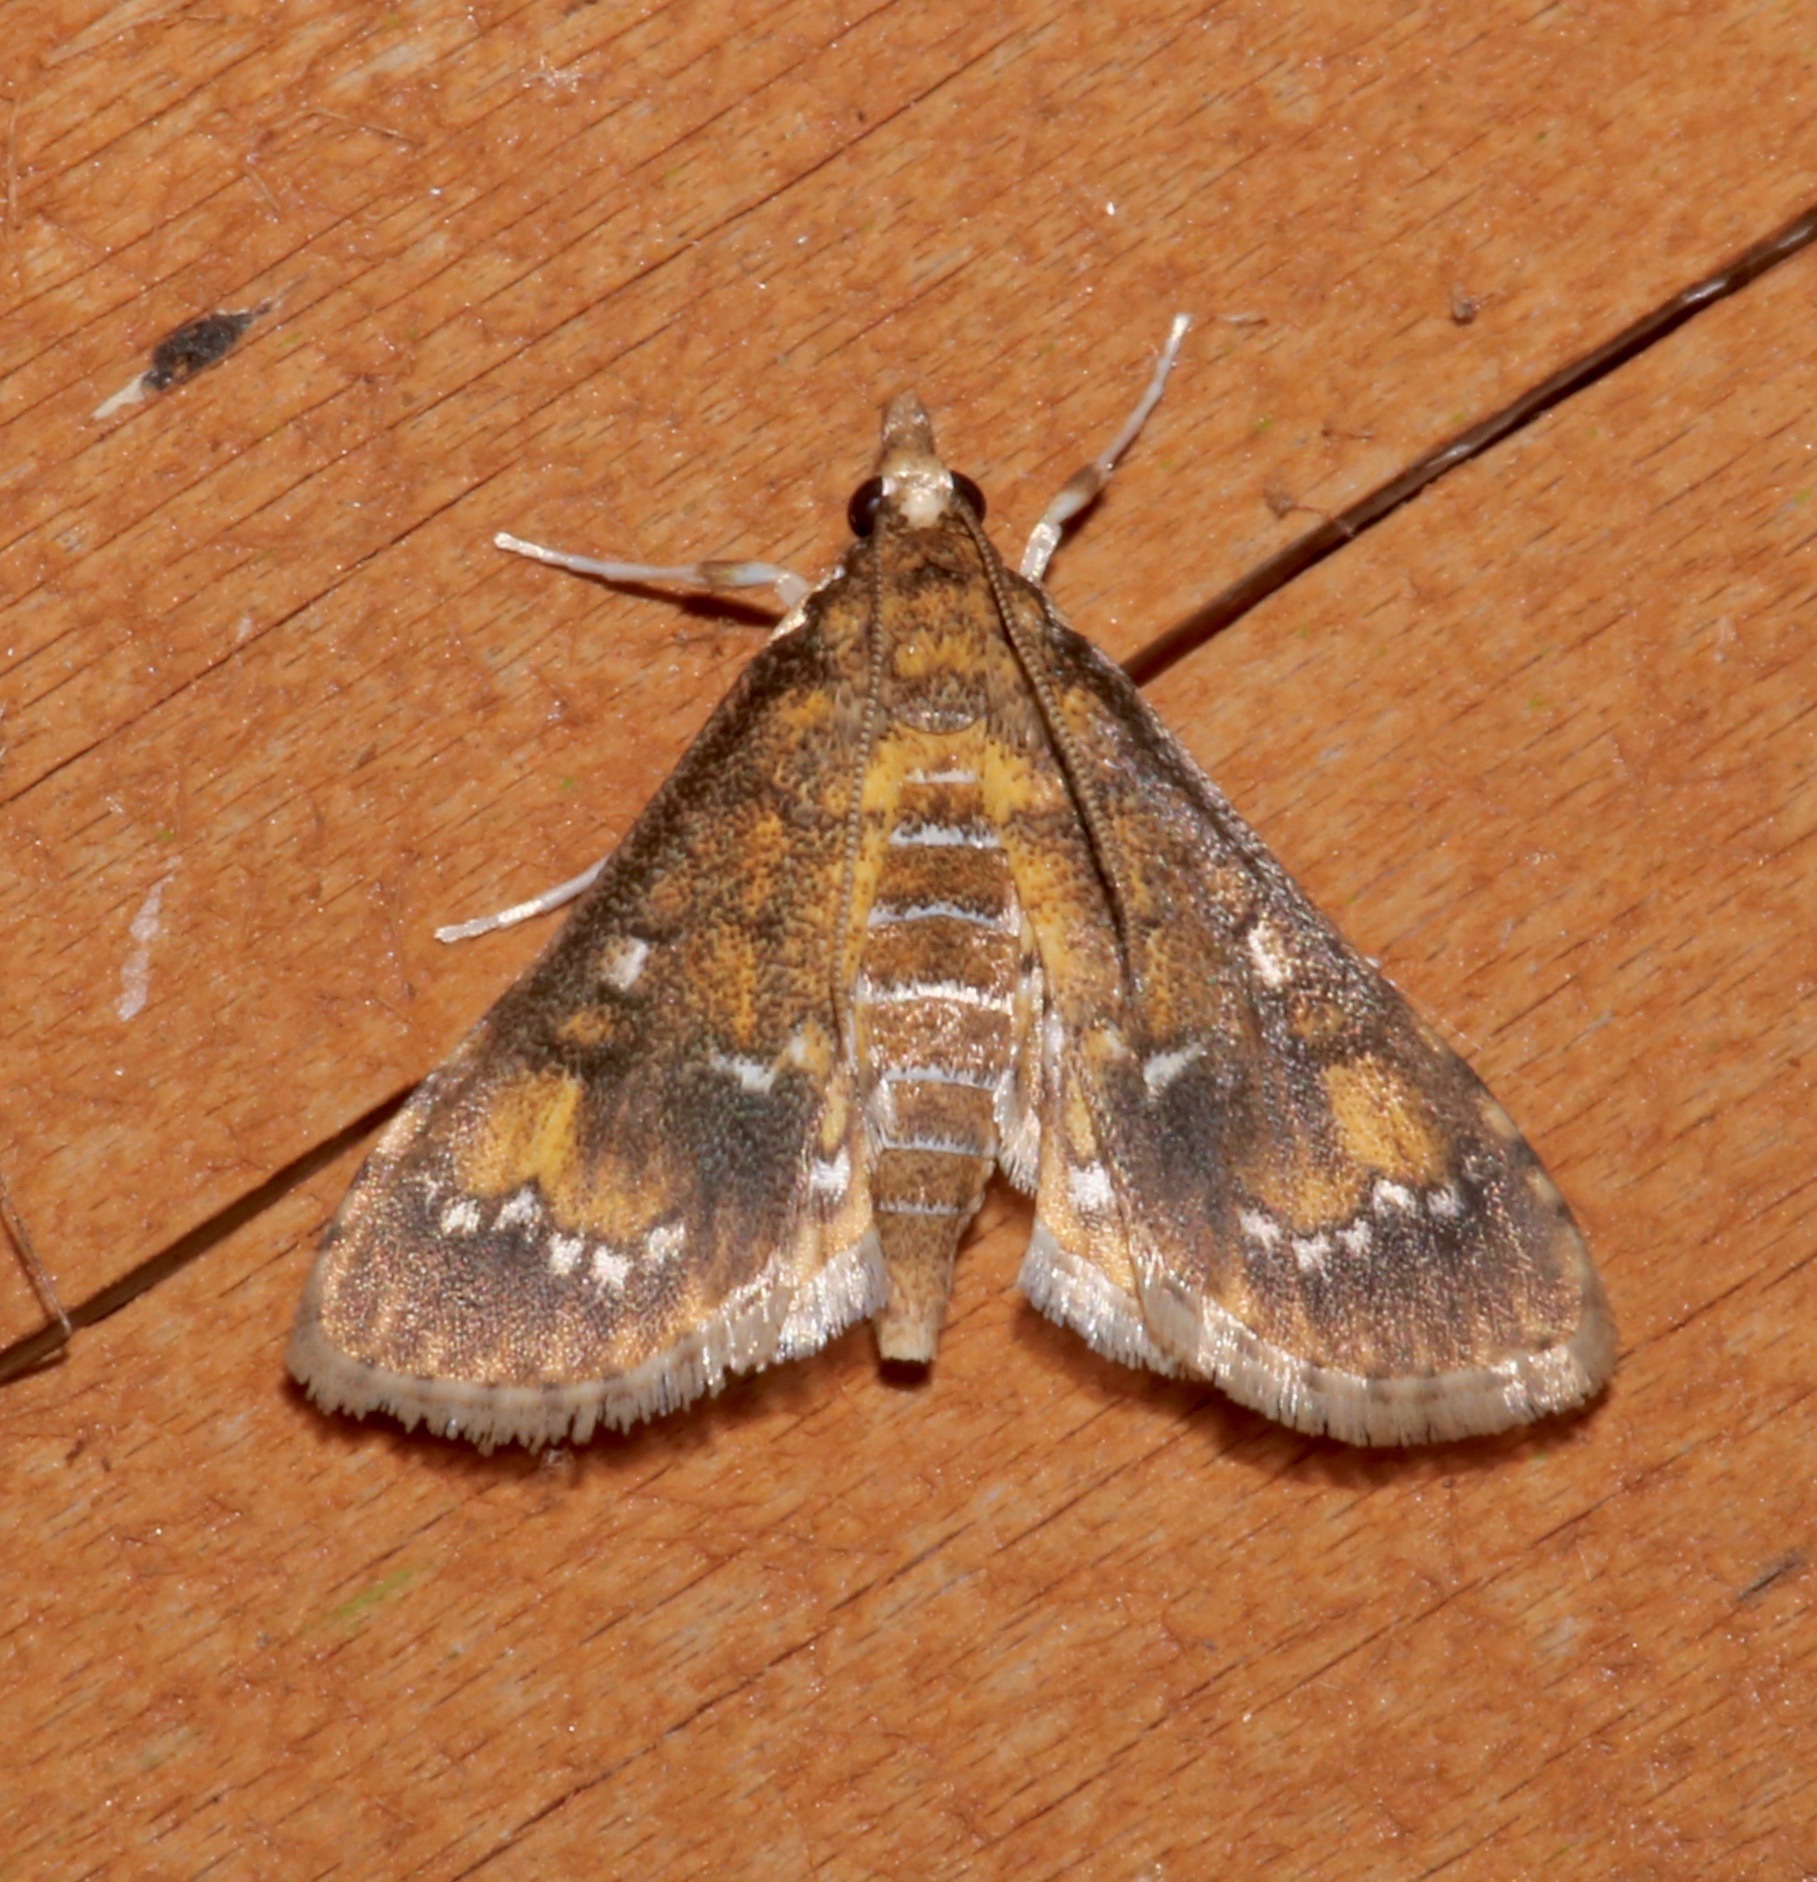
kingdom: Animalia
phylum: Arthropoda
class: Insecta
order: Lepidoptera
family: Crambidae
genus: Niphograpta
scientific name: Niphograpta albiguttalis
